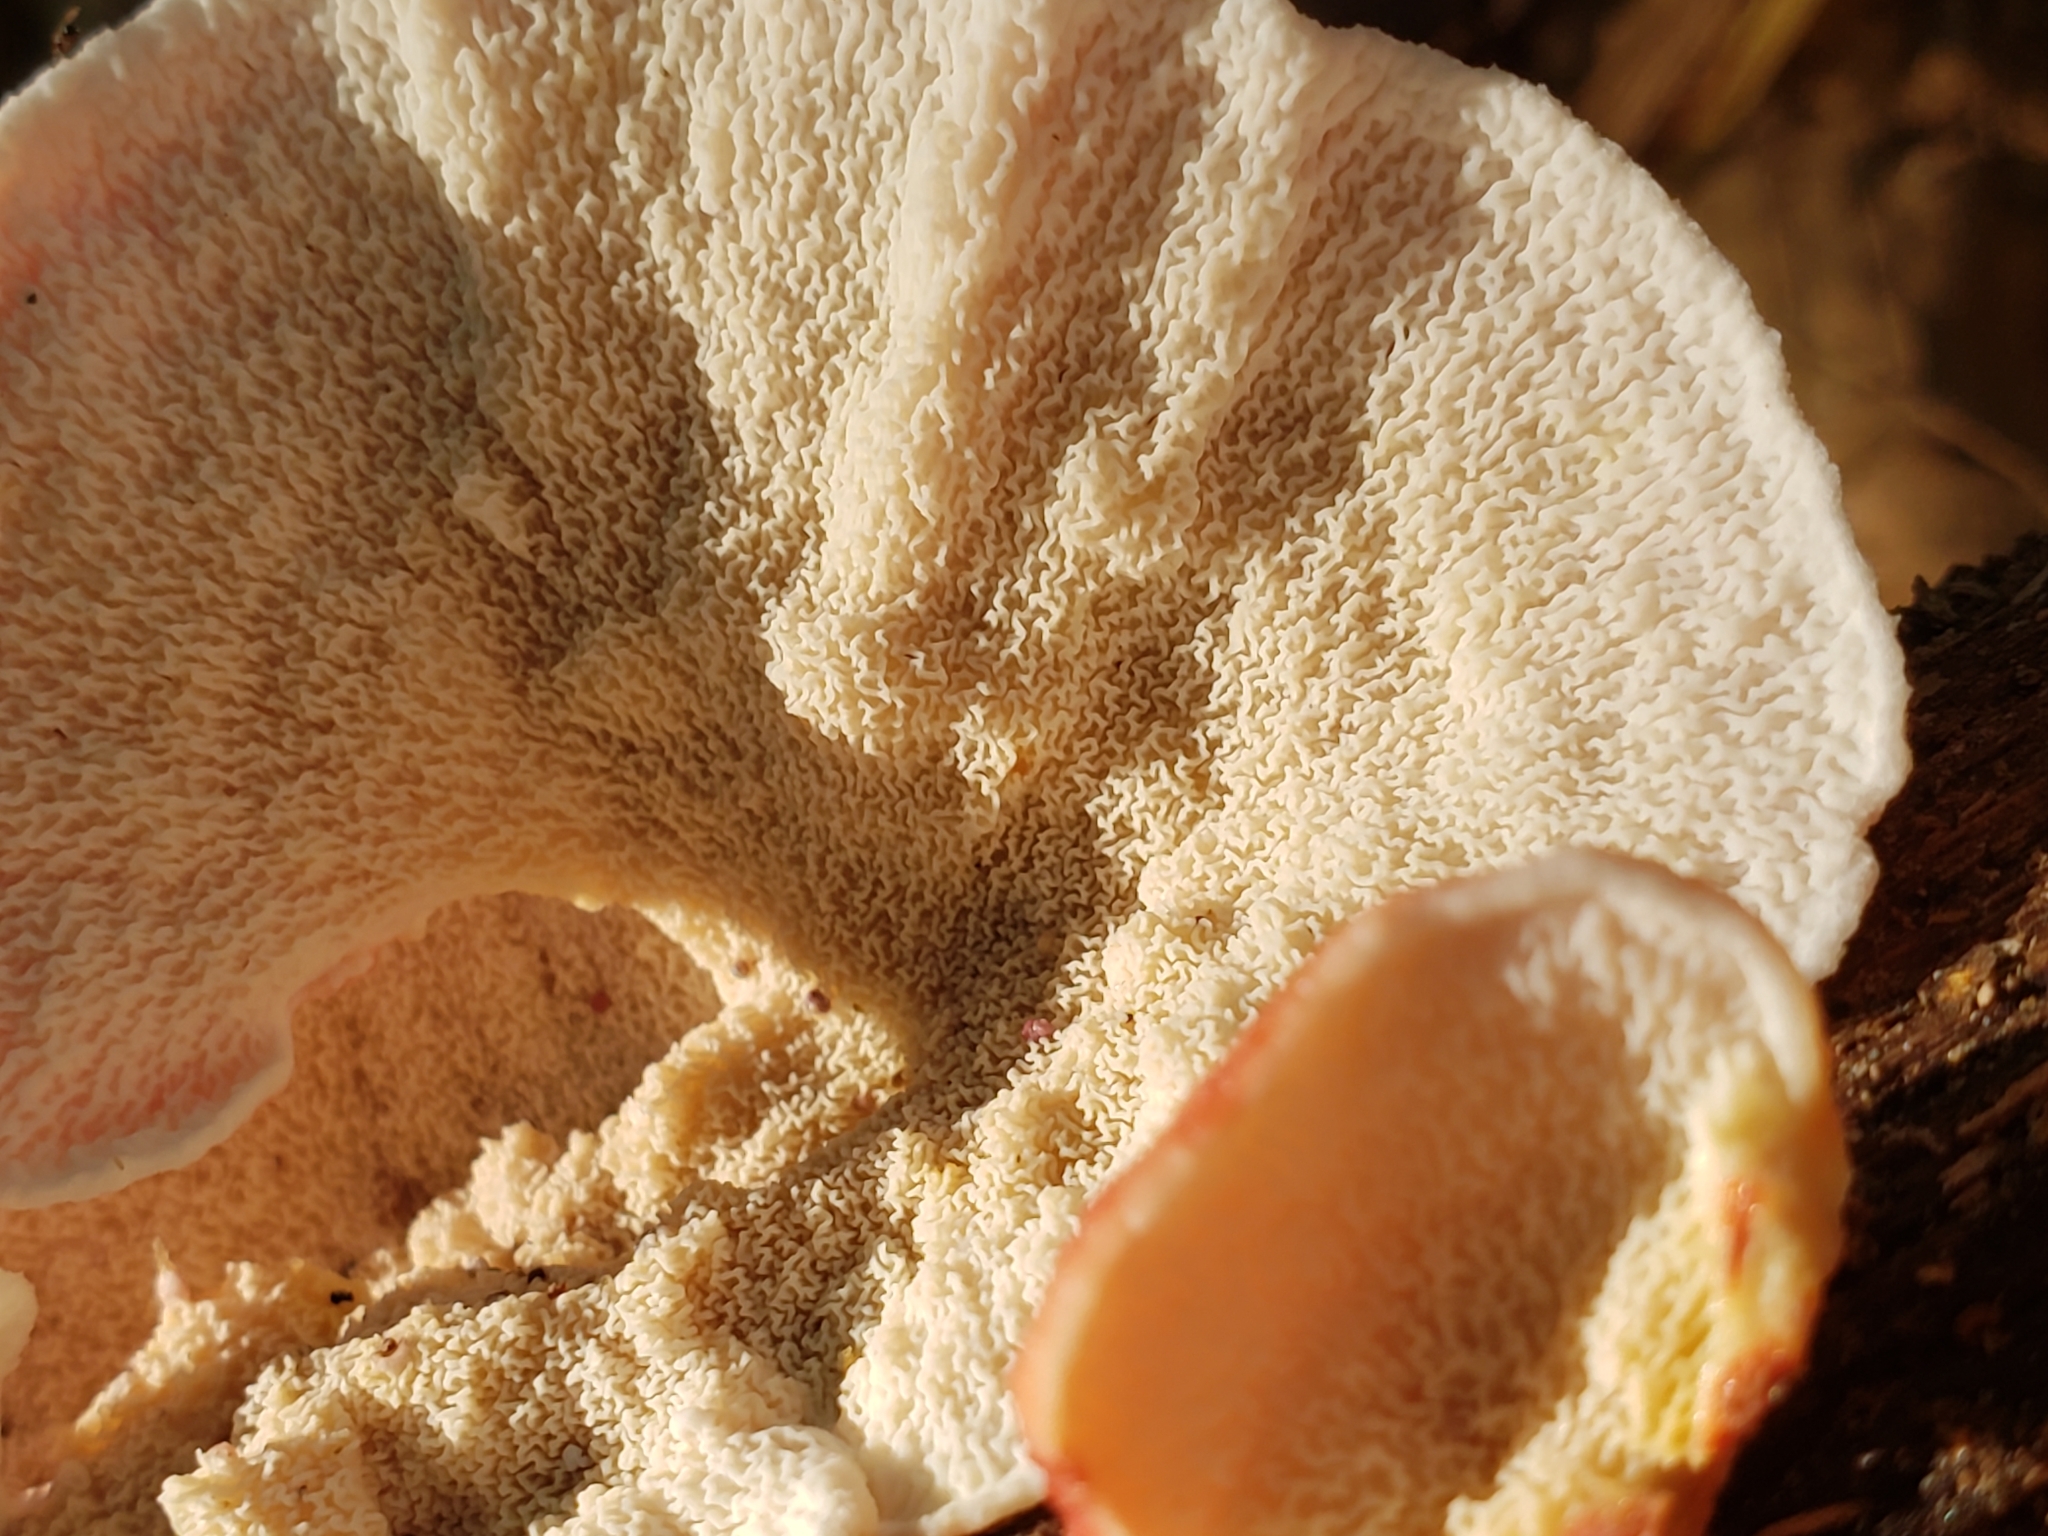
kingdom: Fungi
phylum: Basidiomycota
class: Agaricomycetes
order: Polyporales
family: Irpicaceae
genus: Byssomerulius
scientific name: Byssomerulius incarnatus
